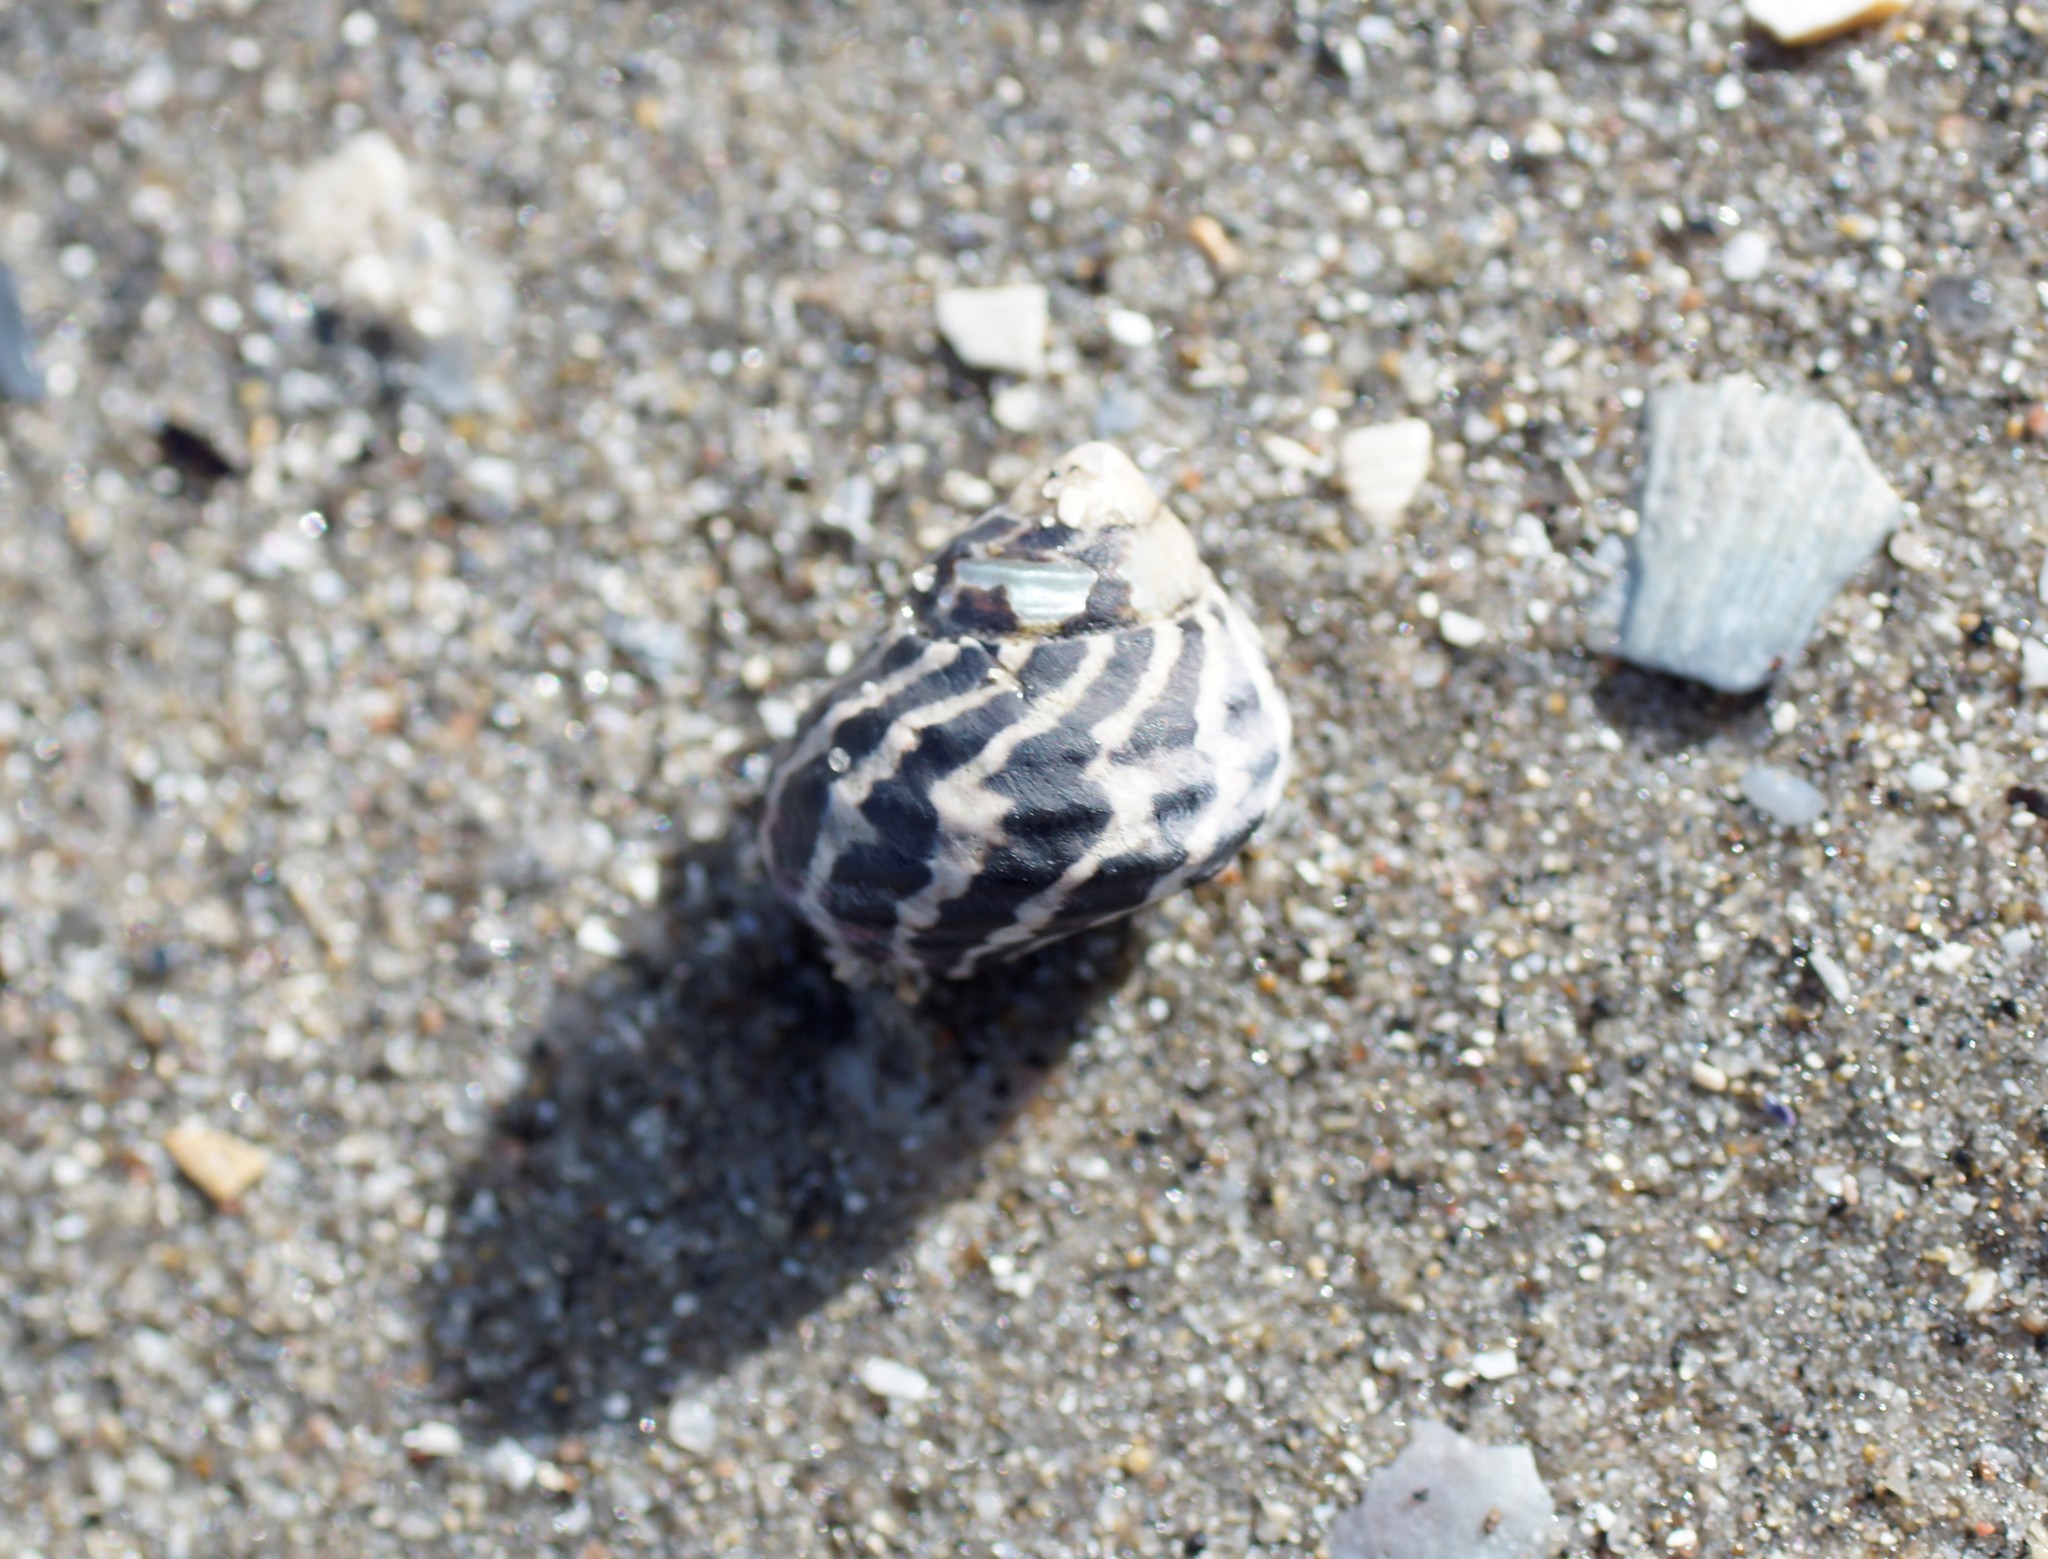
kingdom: Animalia
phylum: Mollusca
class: Gastropoda
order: Trochida
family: Trochidae
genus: Austrocochlea
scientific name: Austrocochlea porcata
